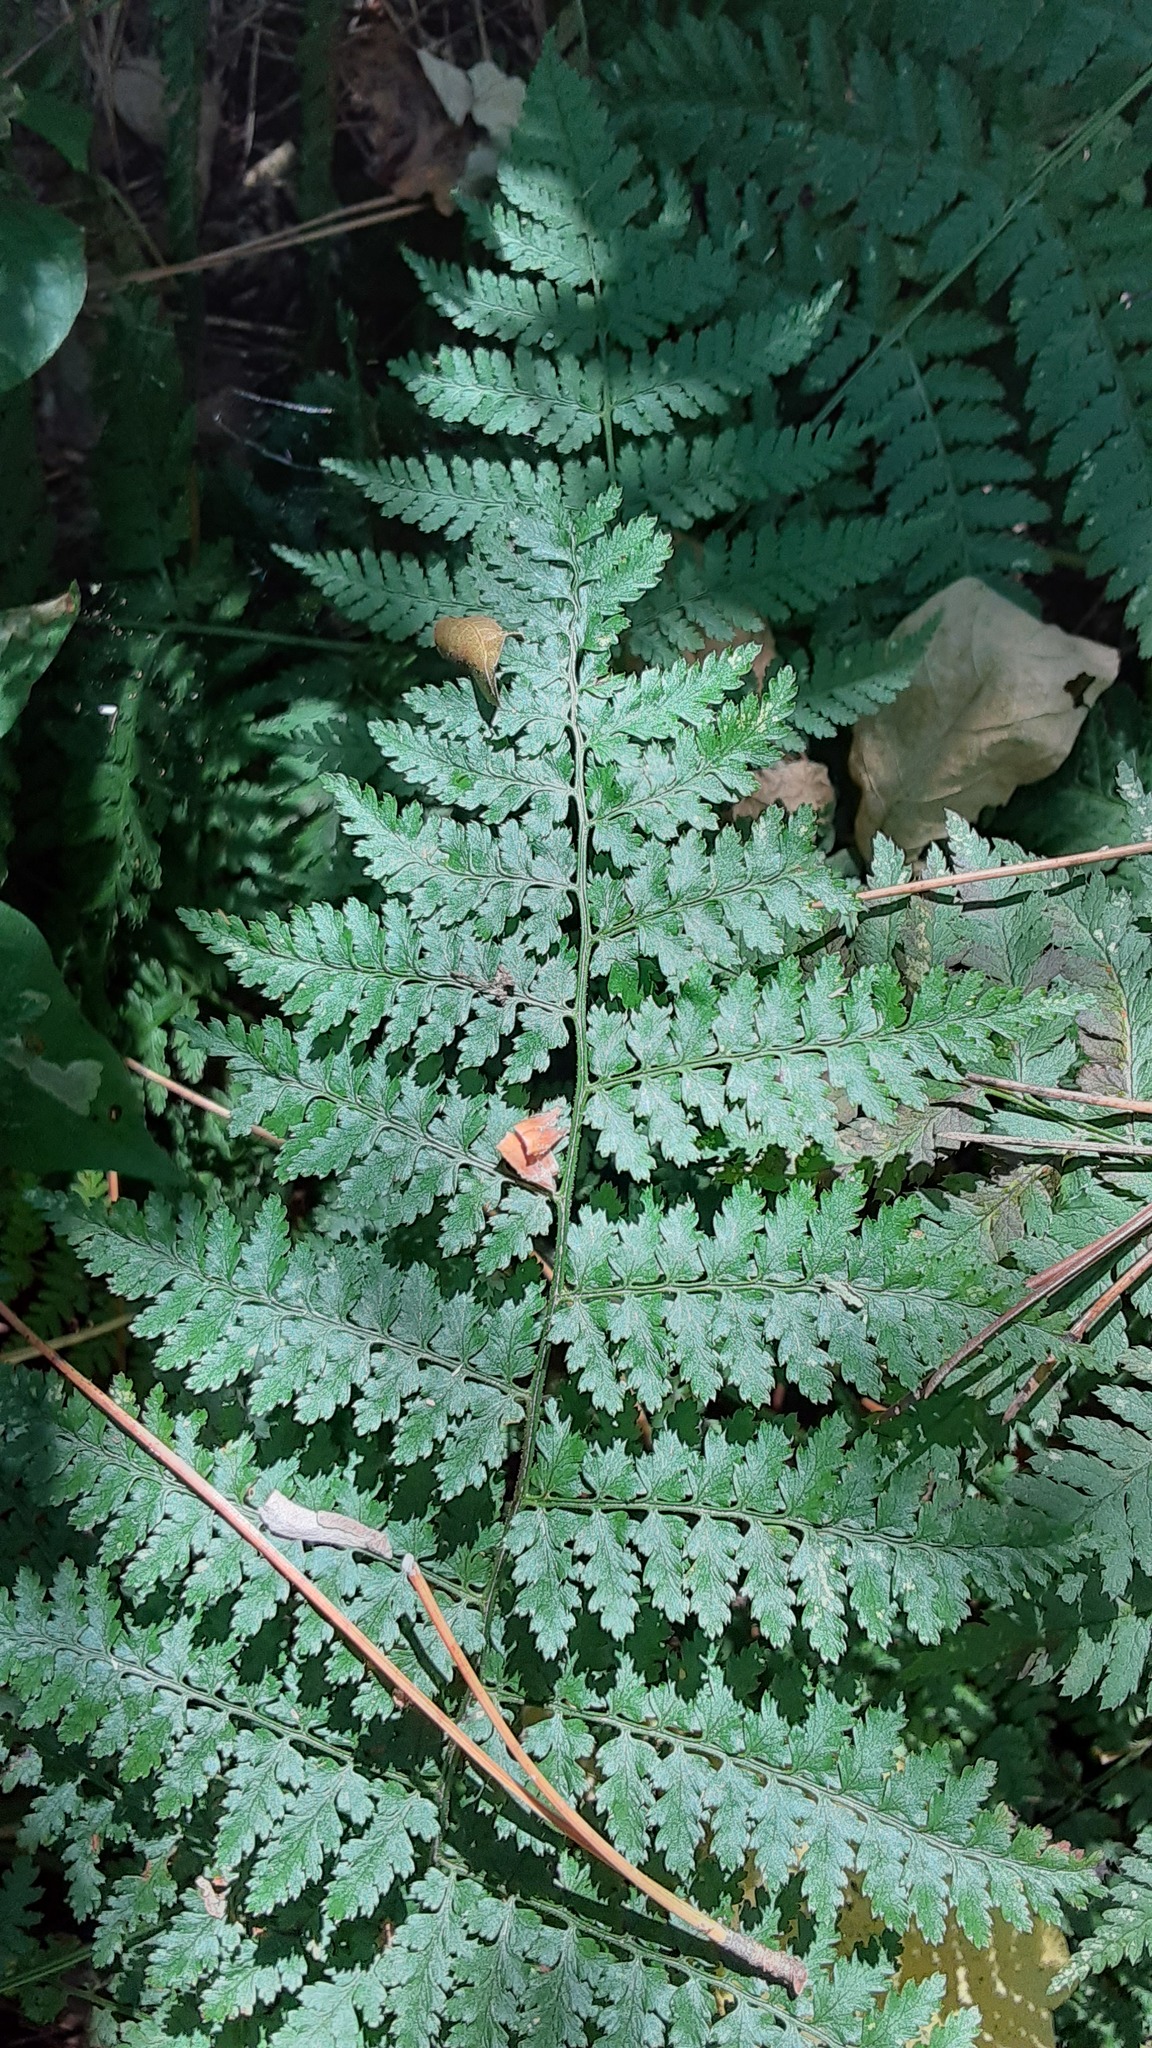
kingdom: Plantae
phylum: Tracheophyta
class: Polypodiopsida
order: Polypodiales
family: Dryopteridaceae
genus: Dryopteris
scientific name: Dryopteris intermedia
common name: Evergreen wood fern
